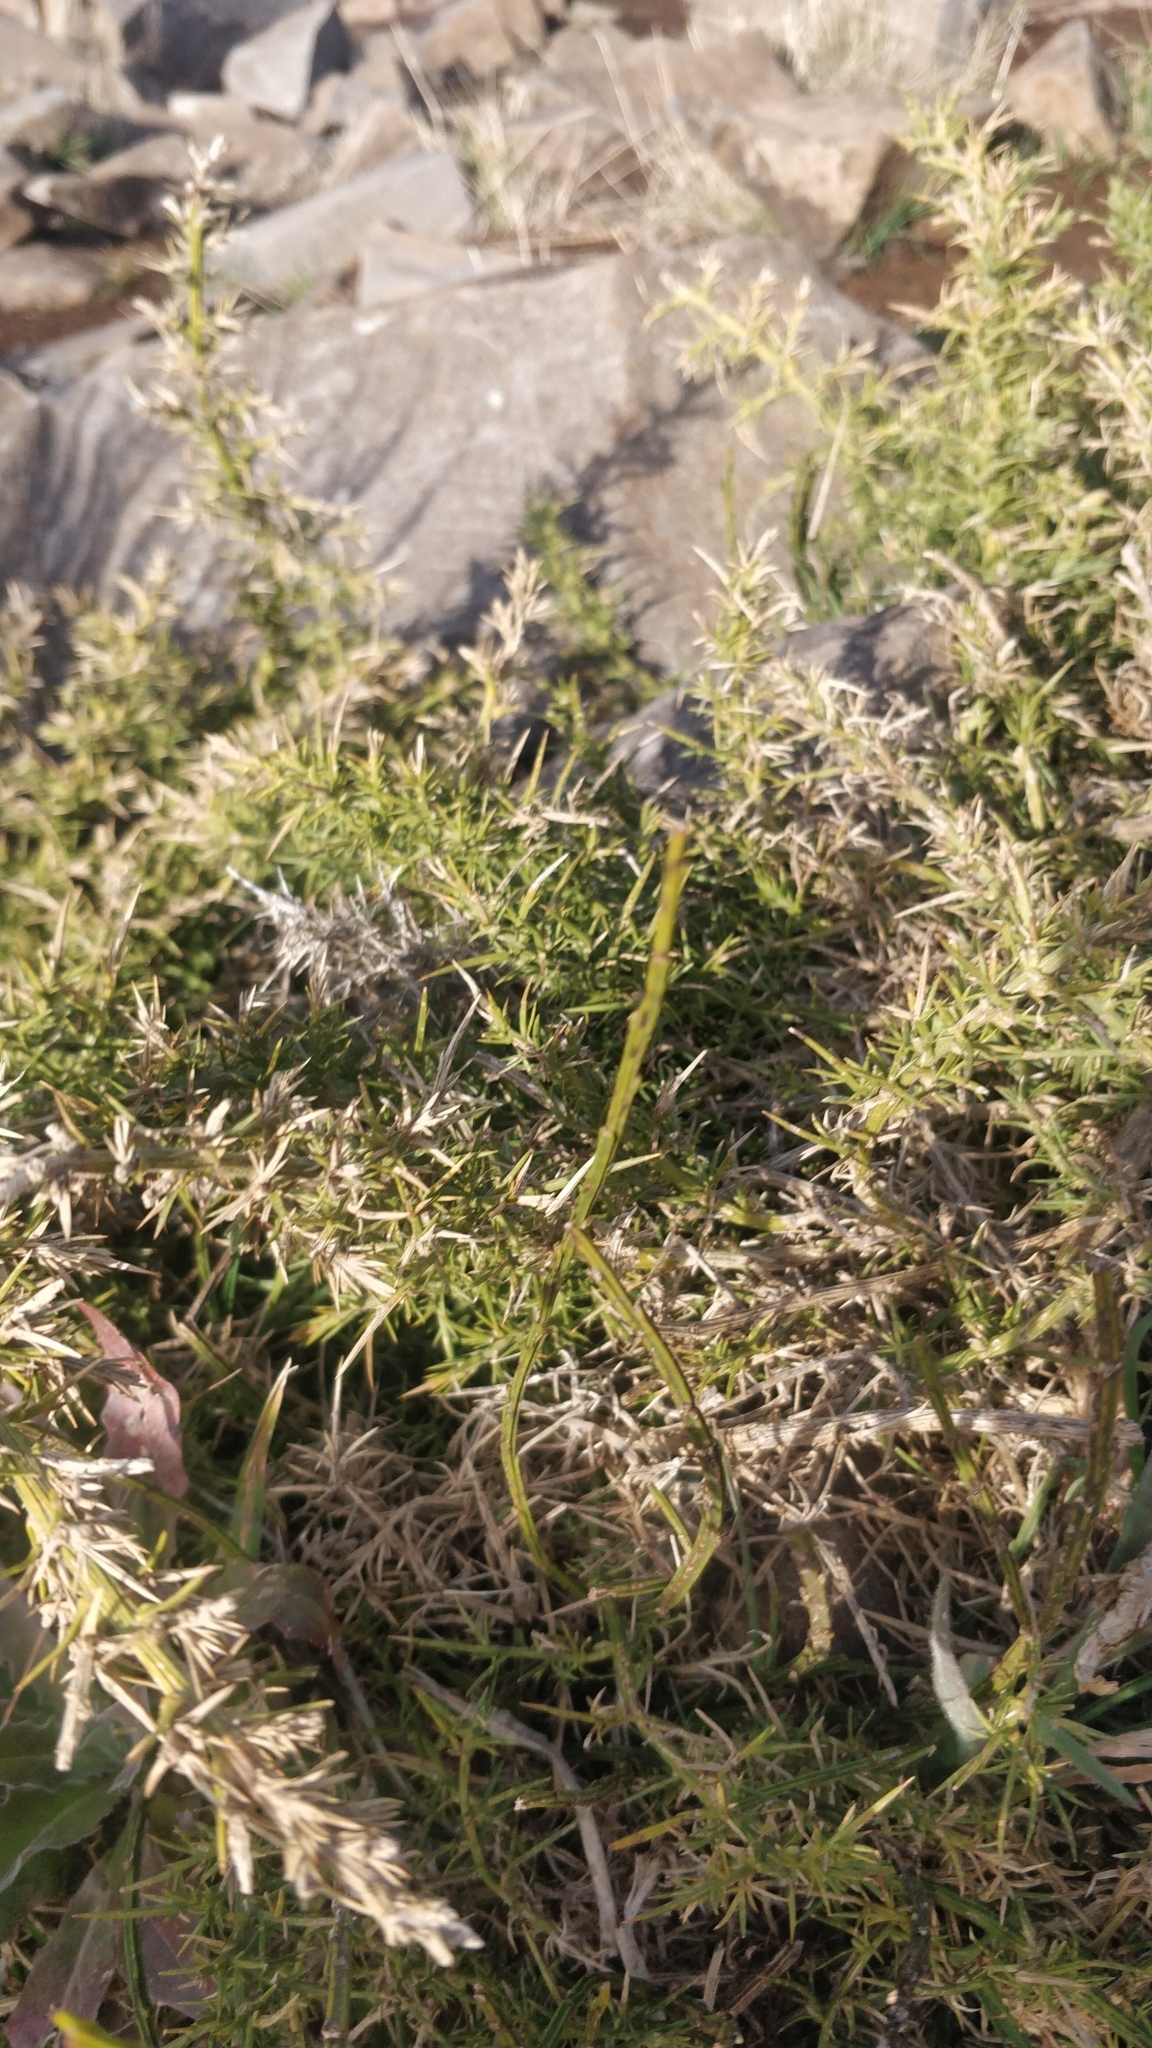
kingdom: Plantae
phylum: Tracheophyta
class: Magnoliopsida
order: Fabales
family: Fabaceae
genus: Ulex
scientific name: Ulex europaeus
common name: Common gorse
